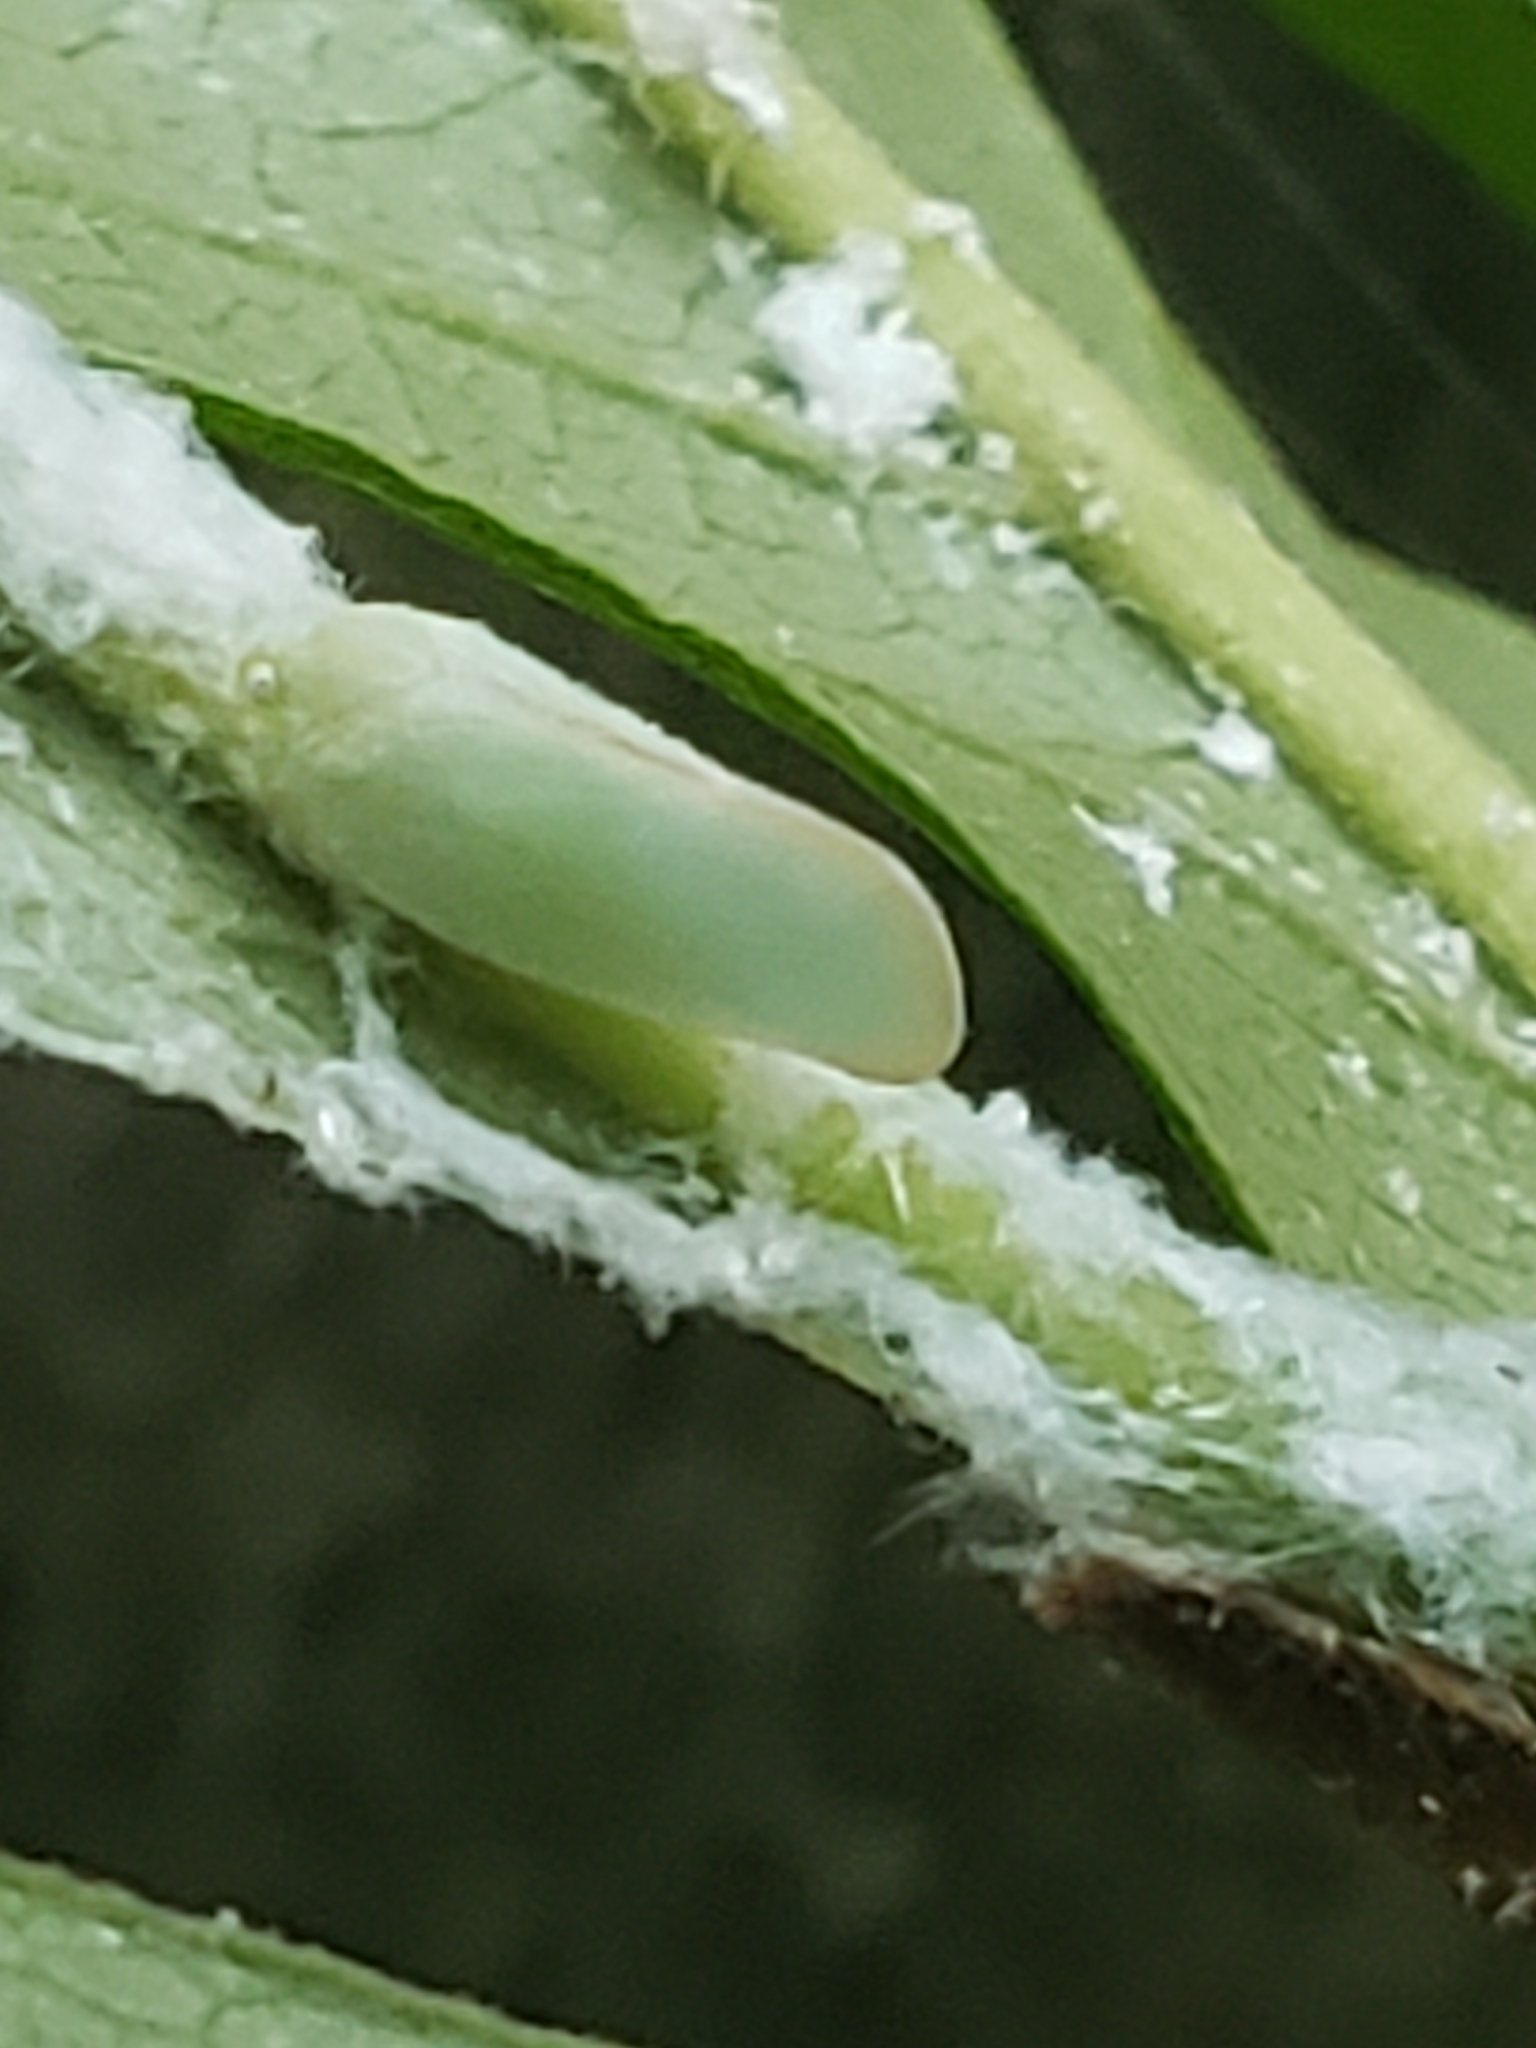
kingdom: Animalia
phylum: Arthropoda
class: Insecta
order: Hemiptera
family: Flatidae
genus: Ormenoides
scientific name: Ormenoides venusta
